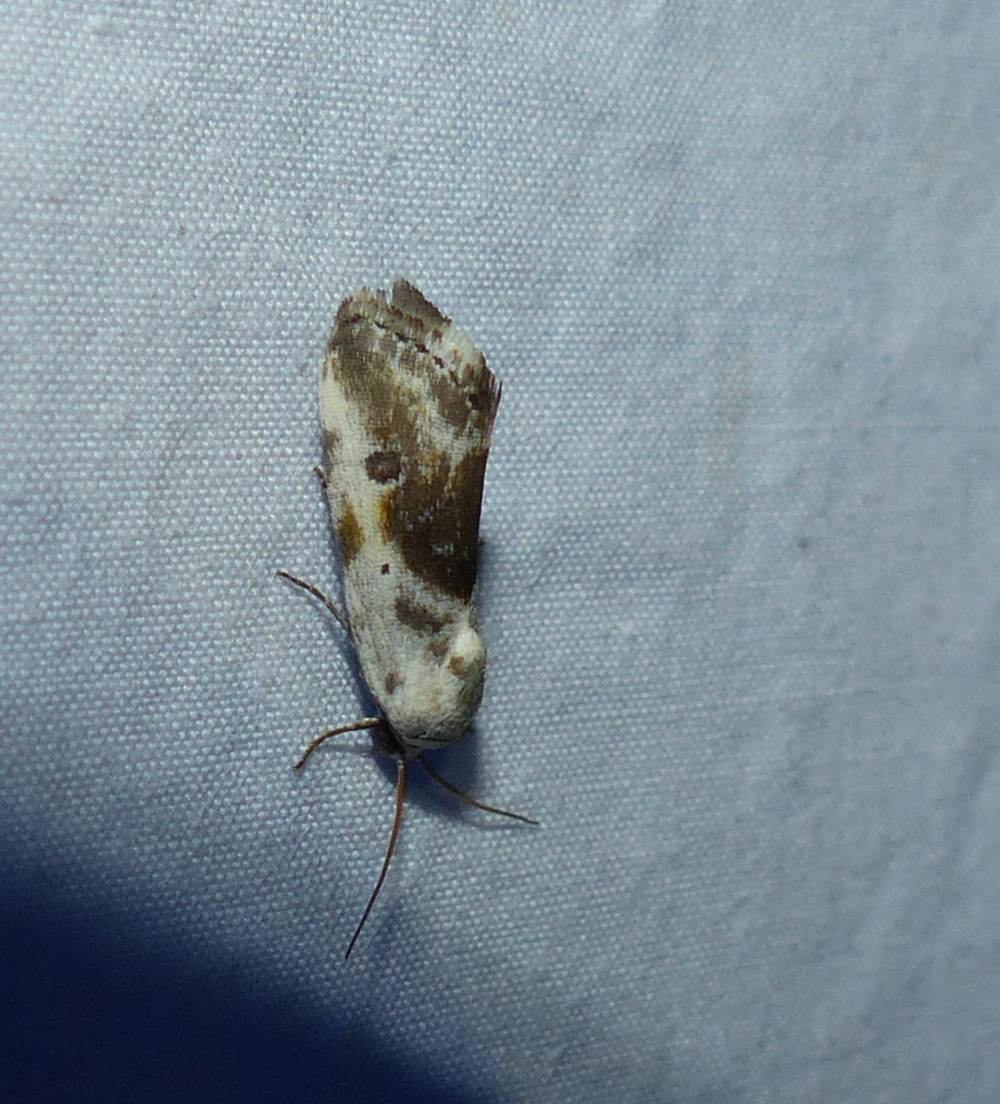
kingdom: Animalia
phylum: Arthropoda
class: Insecta
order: Lepidoptera
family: Noctuidae
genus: Acontia
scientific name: Acontia candefacta
